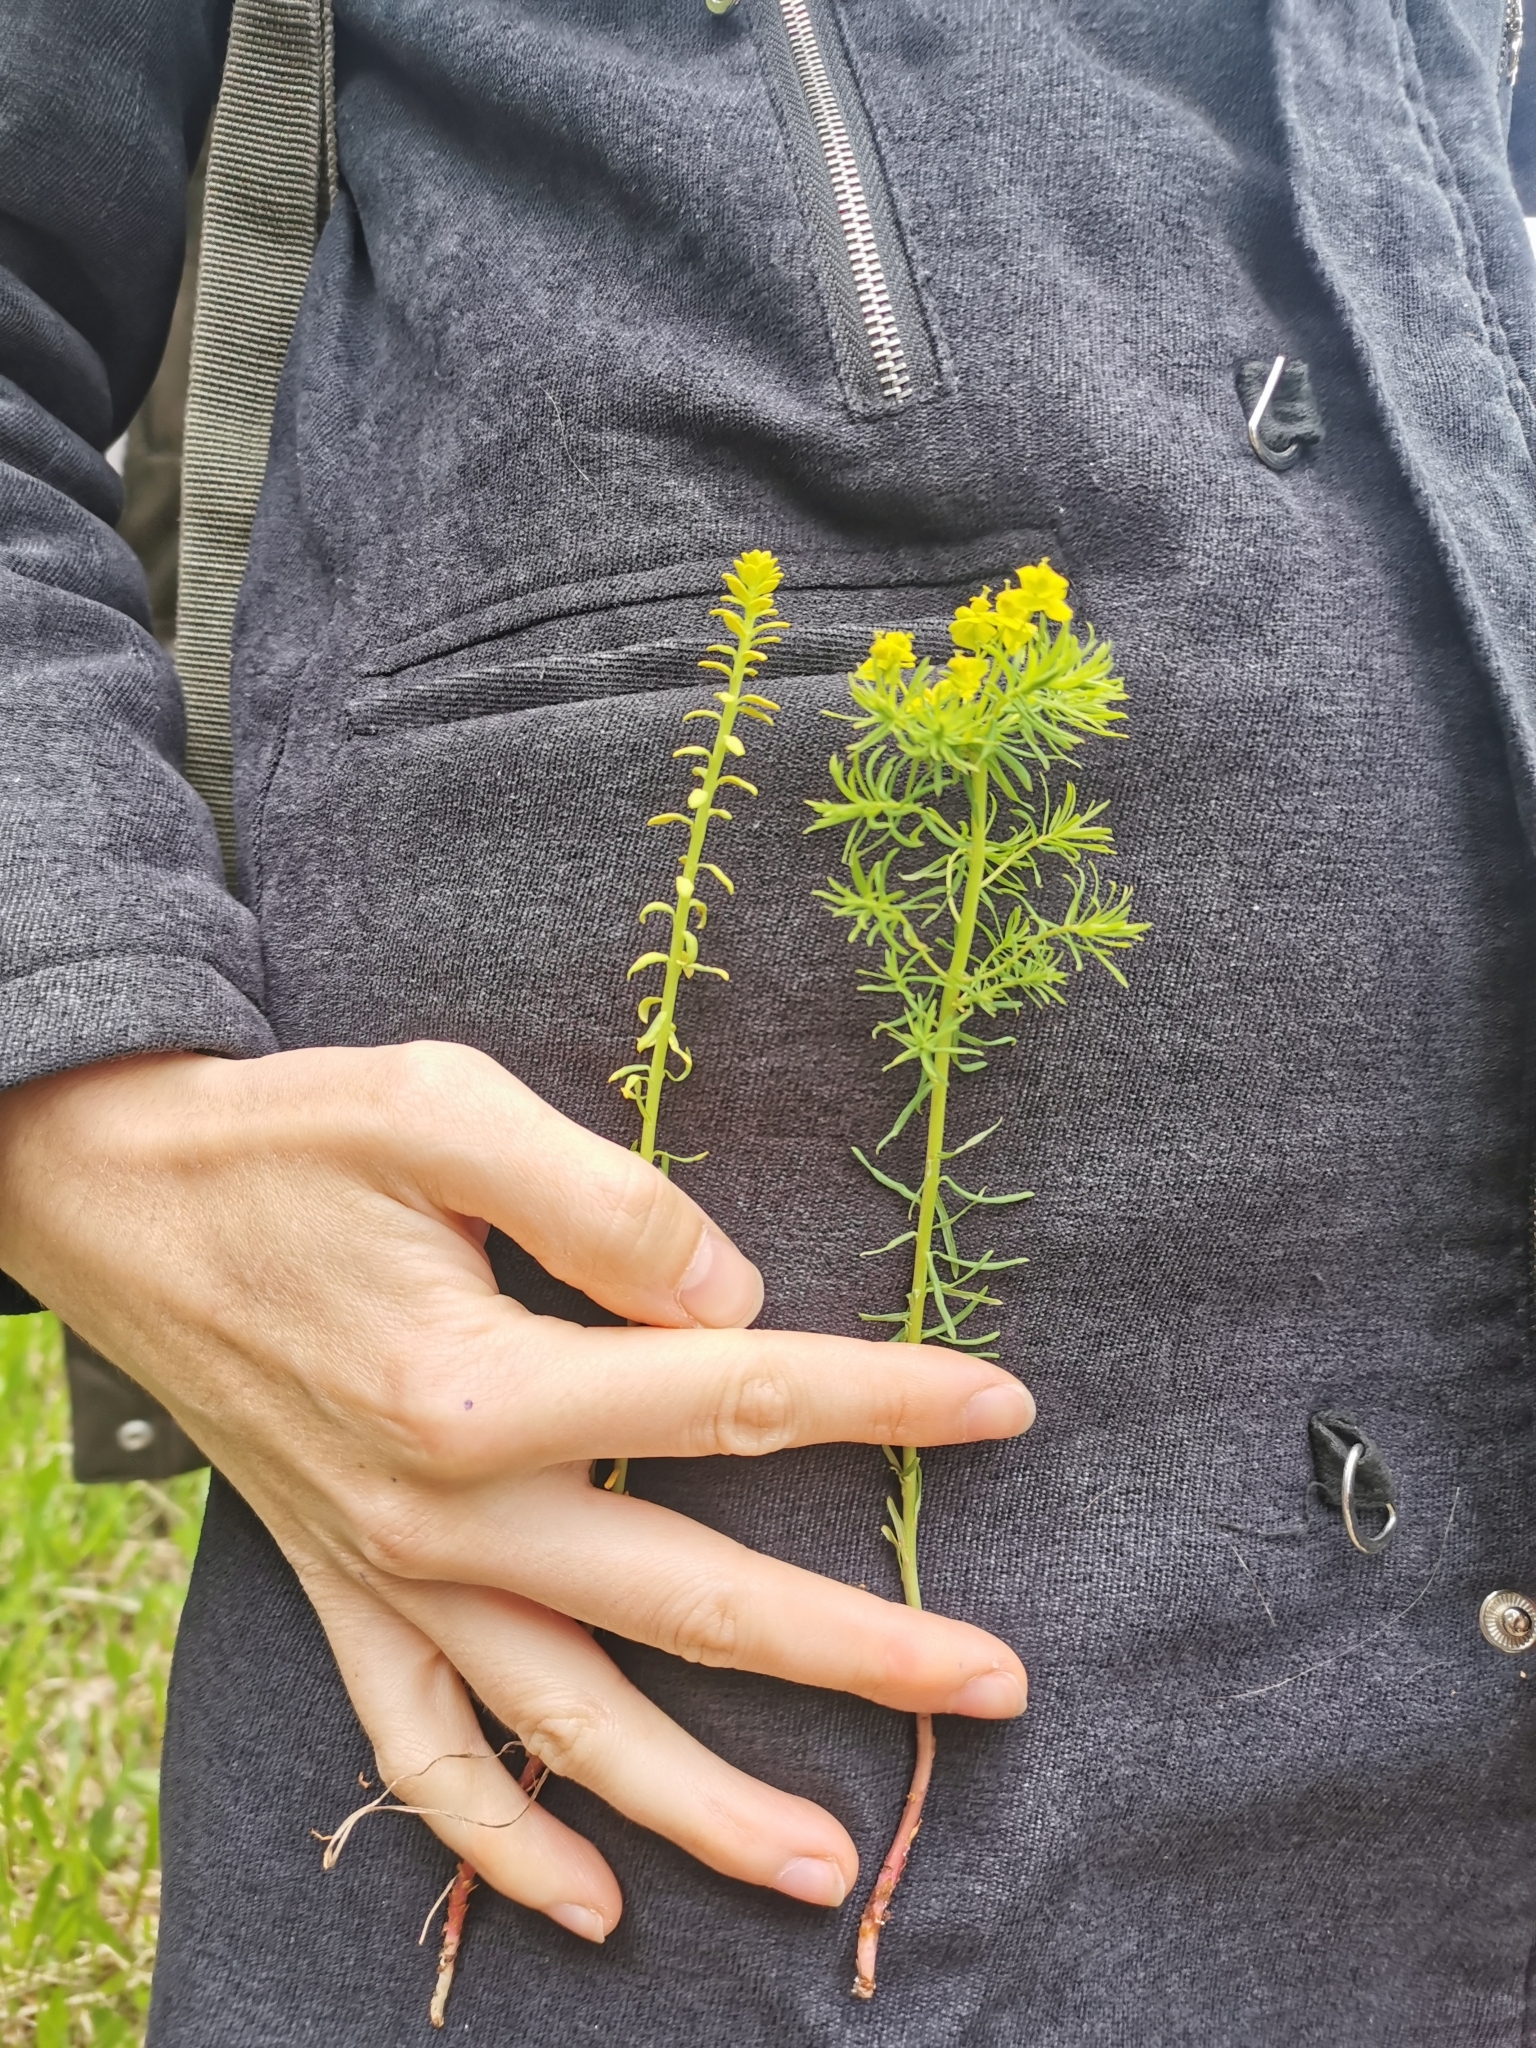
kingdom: Plantae
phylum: Tracheophyta
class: Magnoliopsida
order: Malpighiales
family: Euphorbiaceae
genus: Euphorbia
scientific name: Euphorbia cyparissias
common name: Cypress spurge
